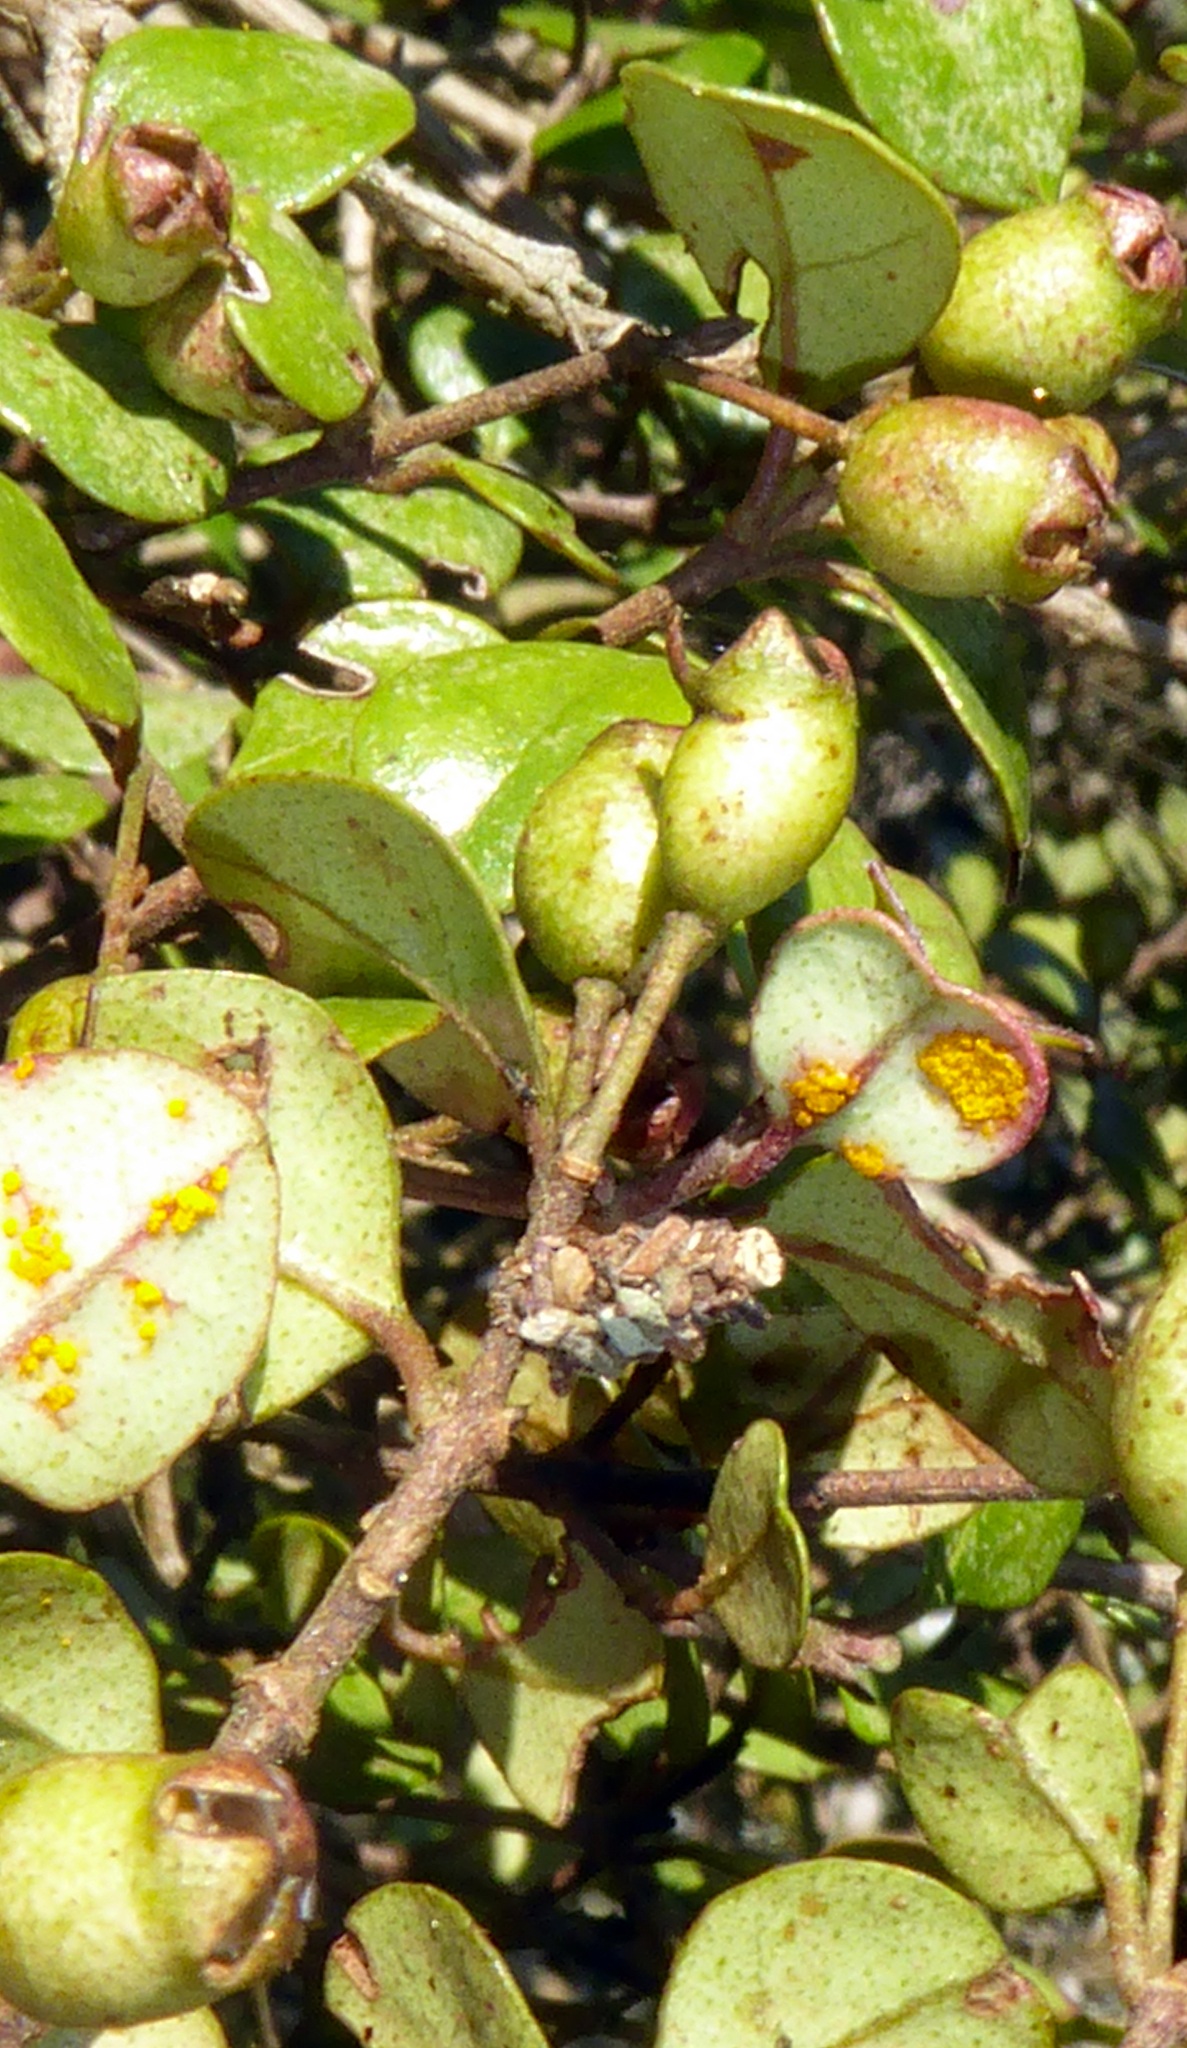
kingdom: Fungi
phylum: Basidiomycota
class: Pucciniomycetes
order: Pucciniales
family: Sphaerophragmiaceae
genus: Austropuccinia
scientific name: Austropuccinia psidii
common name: Myrtle rust
